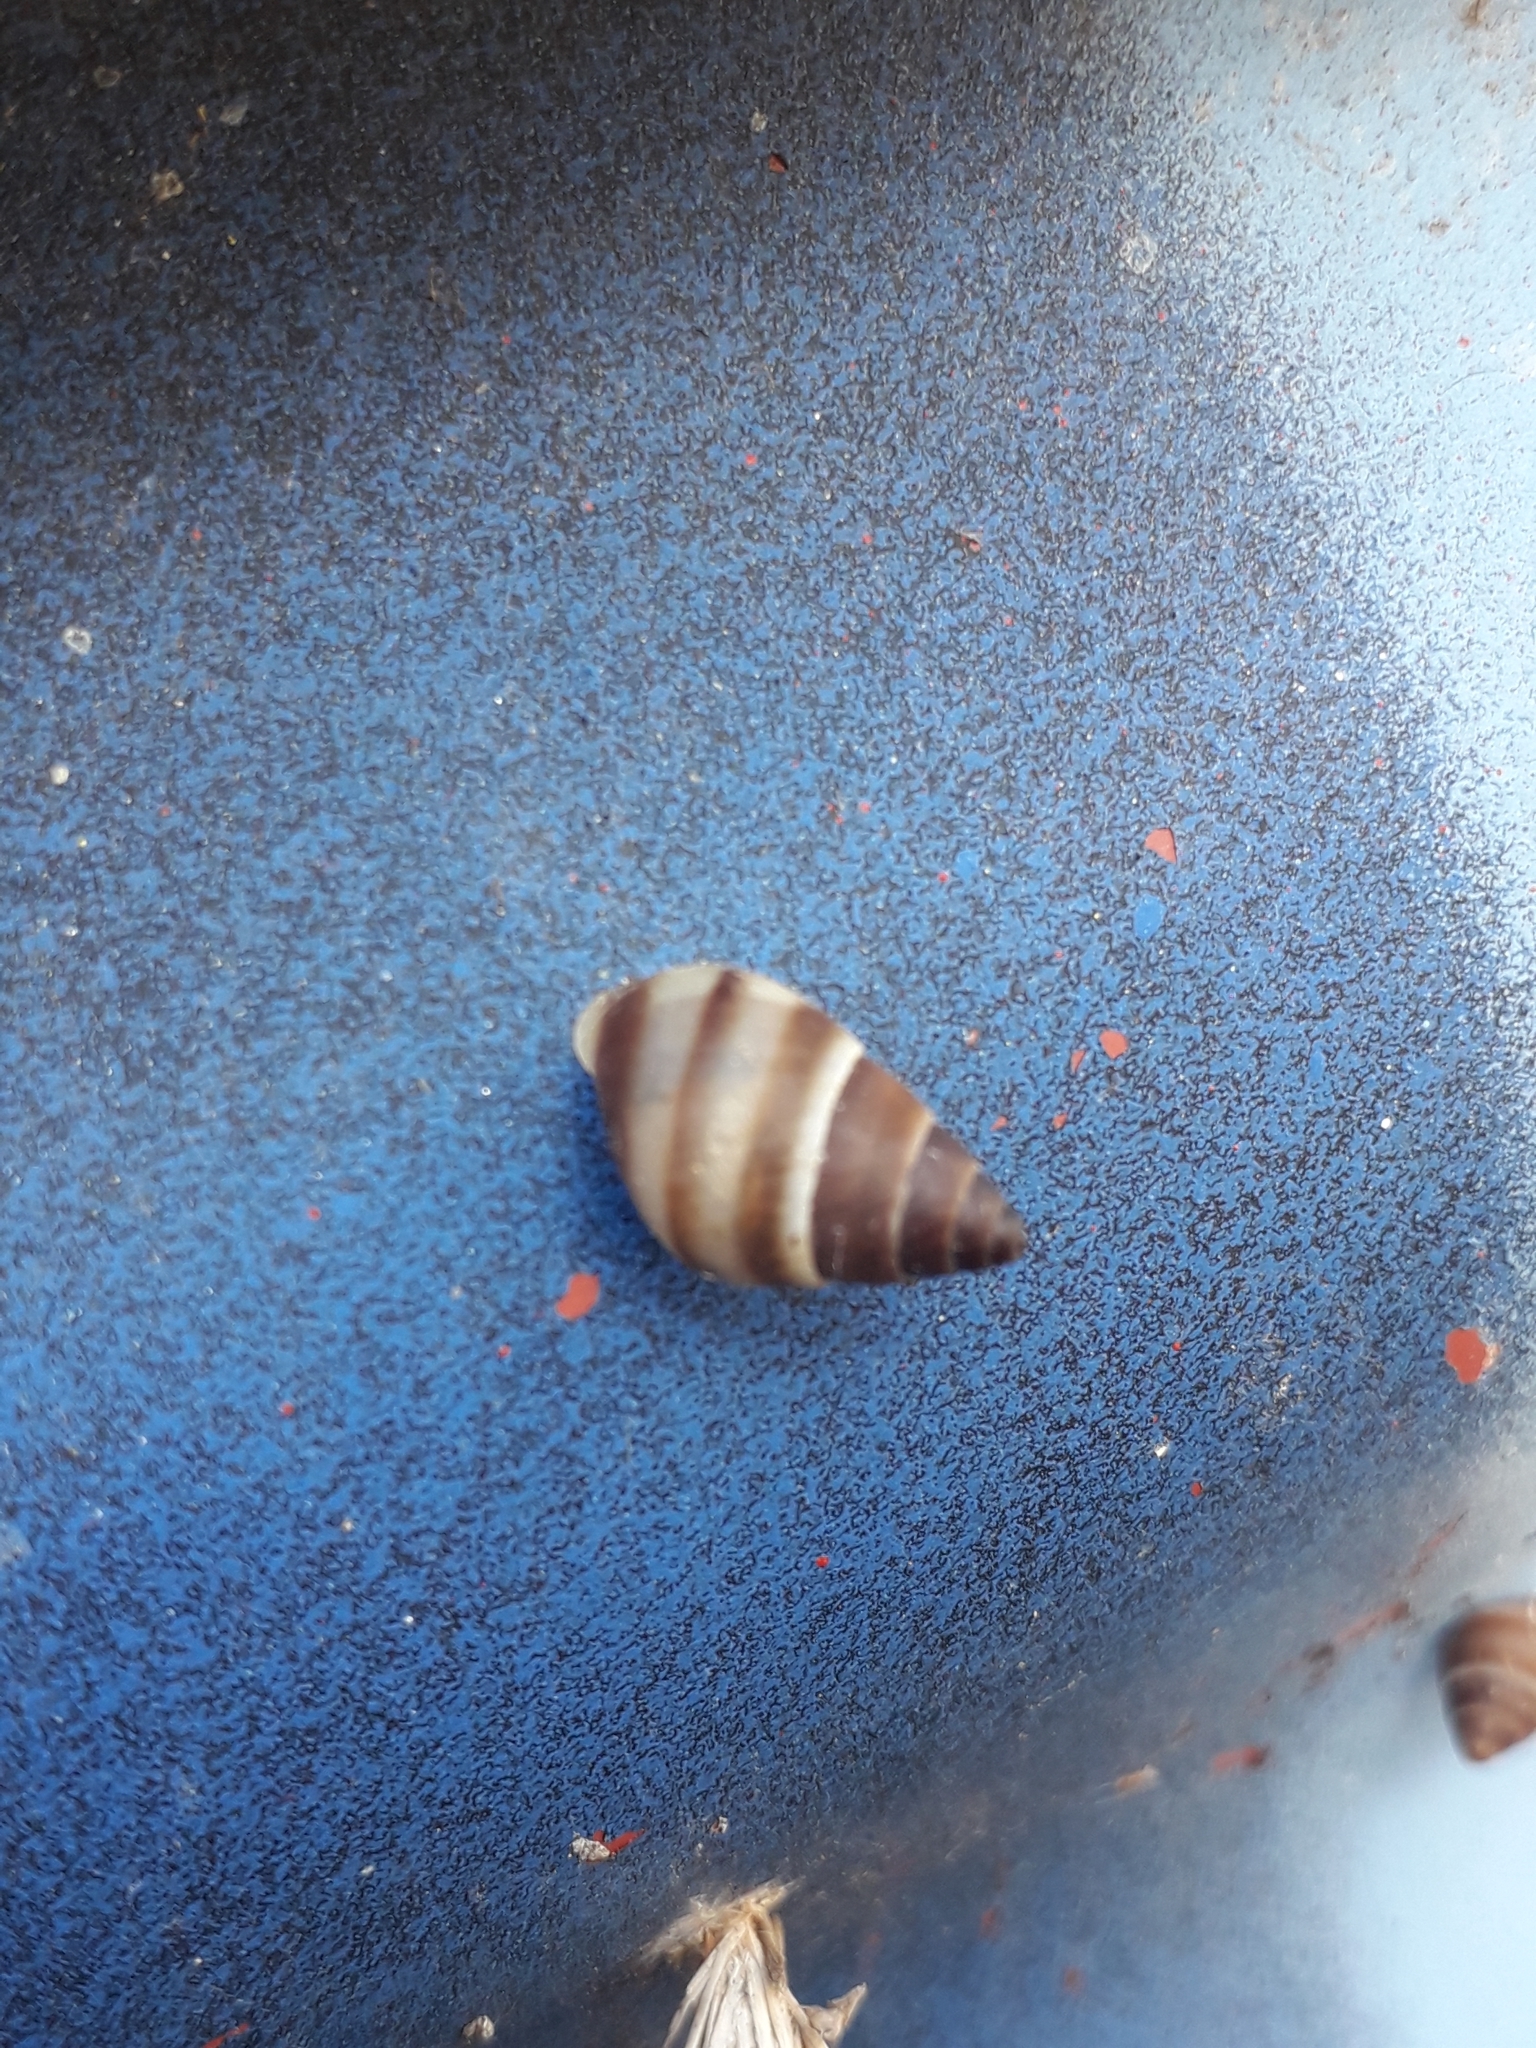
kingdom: Animalia
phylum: Mollusca
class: Gastropoda
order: Stylommatophora
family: Bulimulidae
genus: Bulimulus
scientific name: Bulimulus guadalupensis
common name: West indian bulimulus
